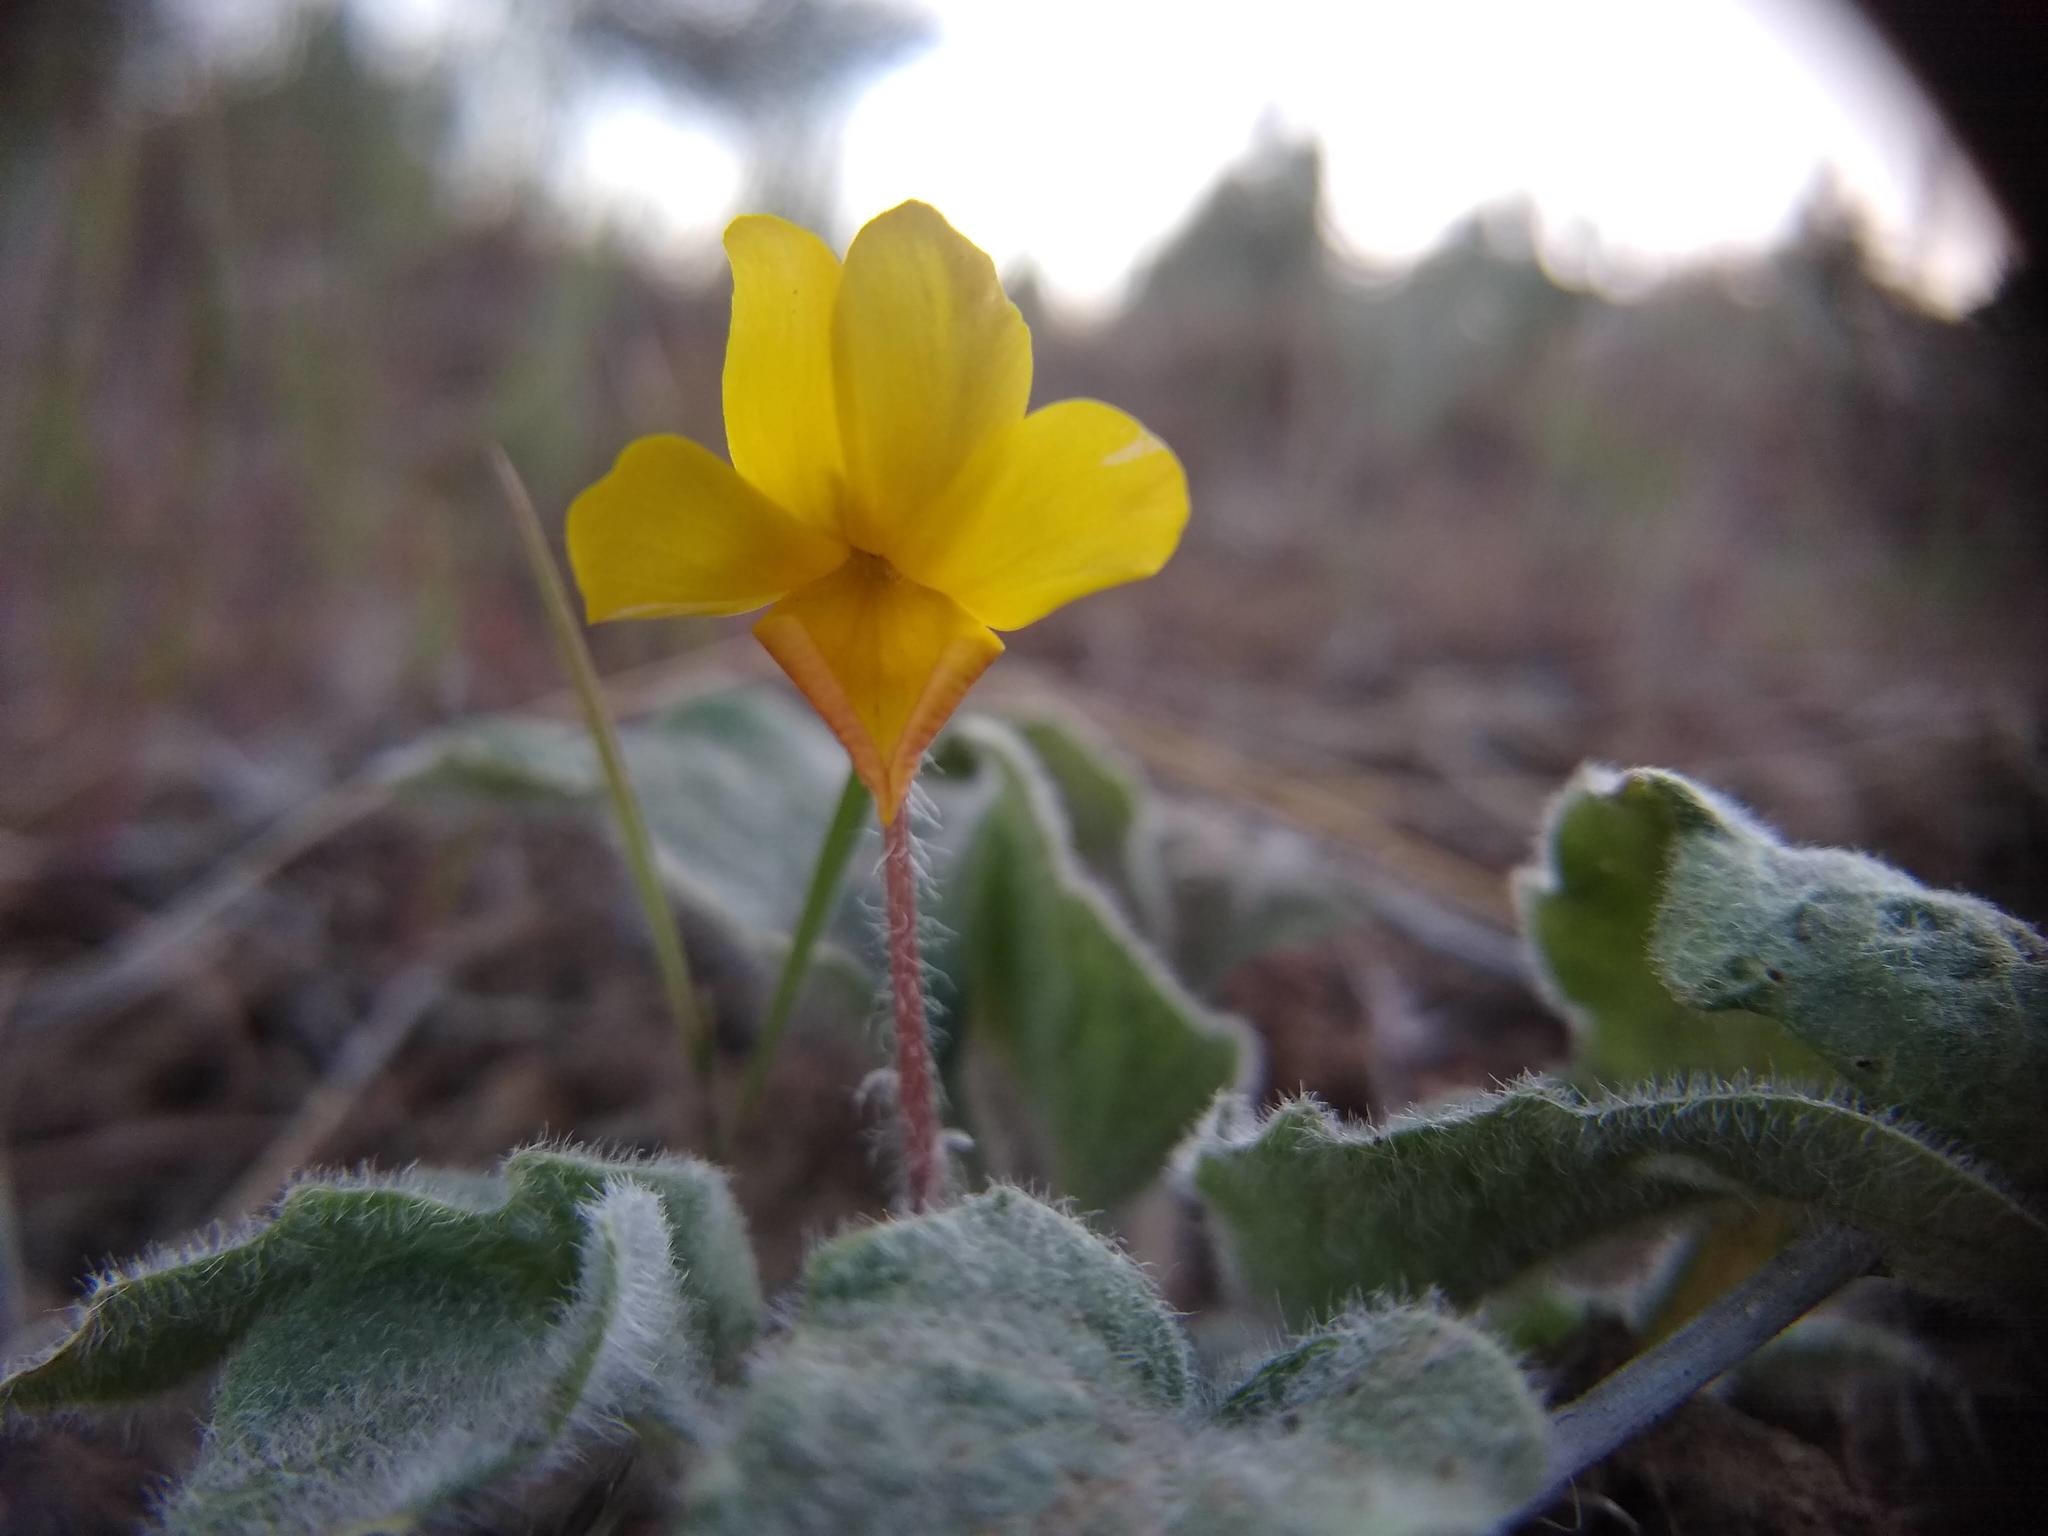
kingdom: Plantae
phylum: Tracheophyta
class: Magnoliopsida
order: Malpighiales
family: Violaceae
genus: Viola
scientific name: Viola purpurea
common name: Pine violet
